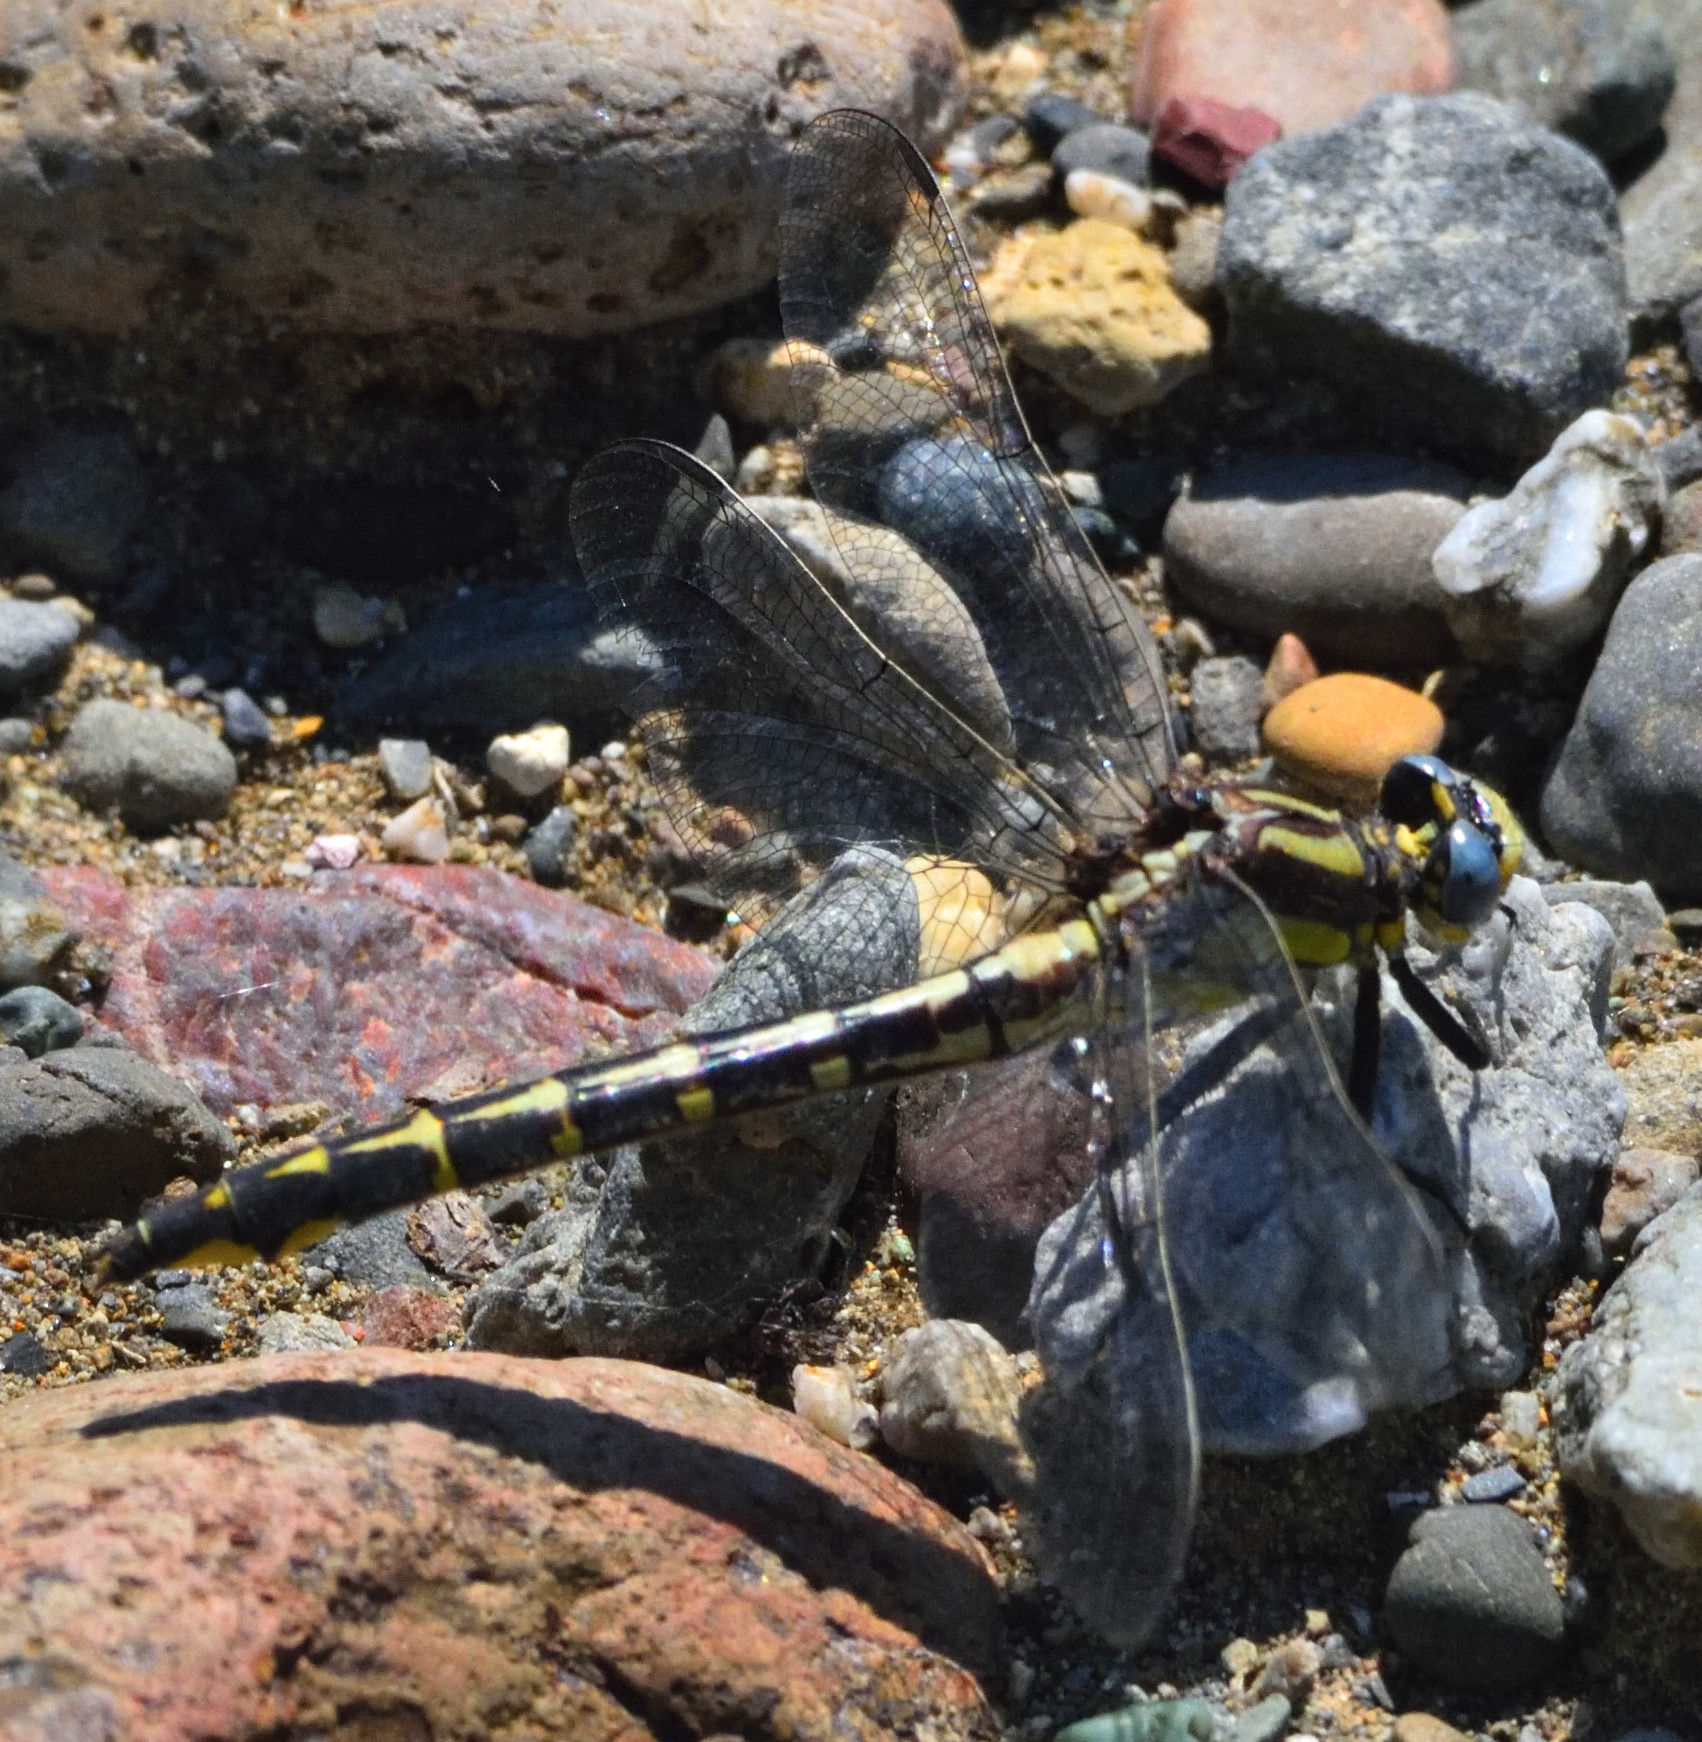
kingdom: Animalia
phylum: Arthropoda
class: Insecta
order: Odonata
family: Gomphidae
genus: Phanogomphus
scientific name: Phanogomphus kurilis
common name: Pacific clubtail
